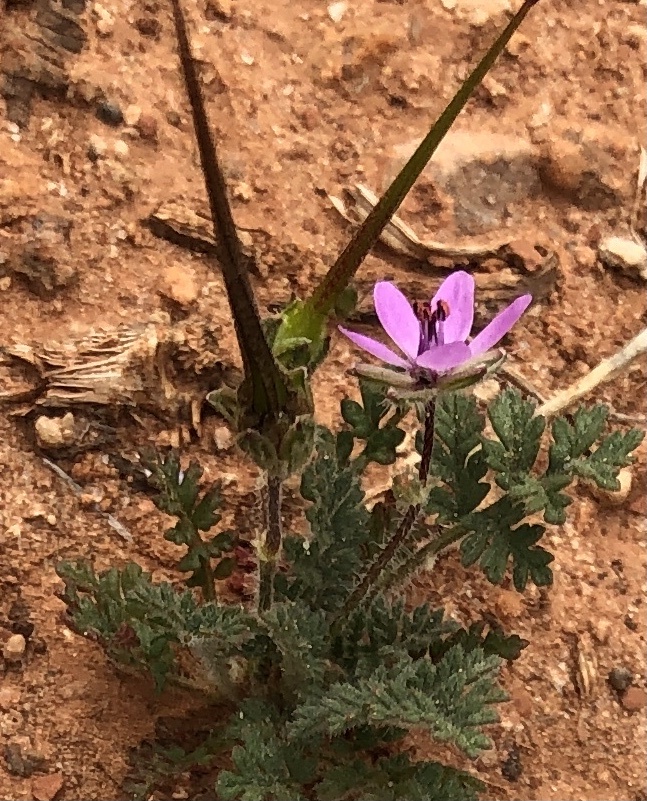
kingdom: Plantae
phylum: Tracheophyta
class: Magnoliopsida
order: Geraniales
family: Geraniaceae
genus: Erodium
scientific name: Erodium cicutarium
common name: Common stork's-bill
